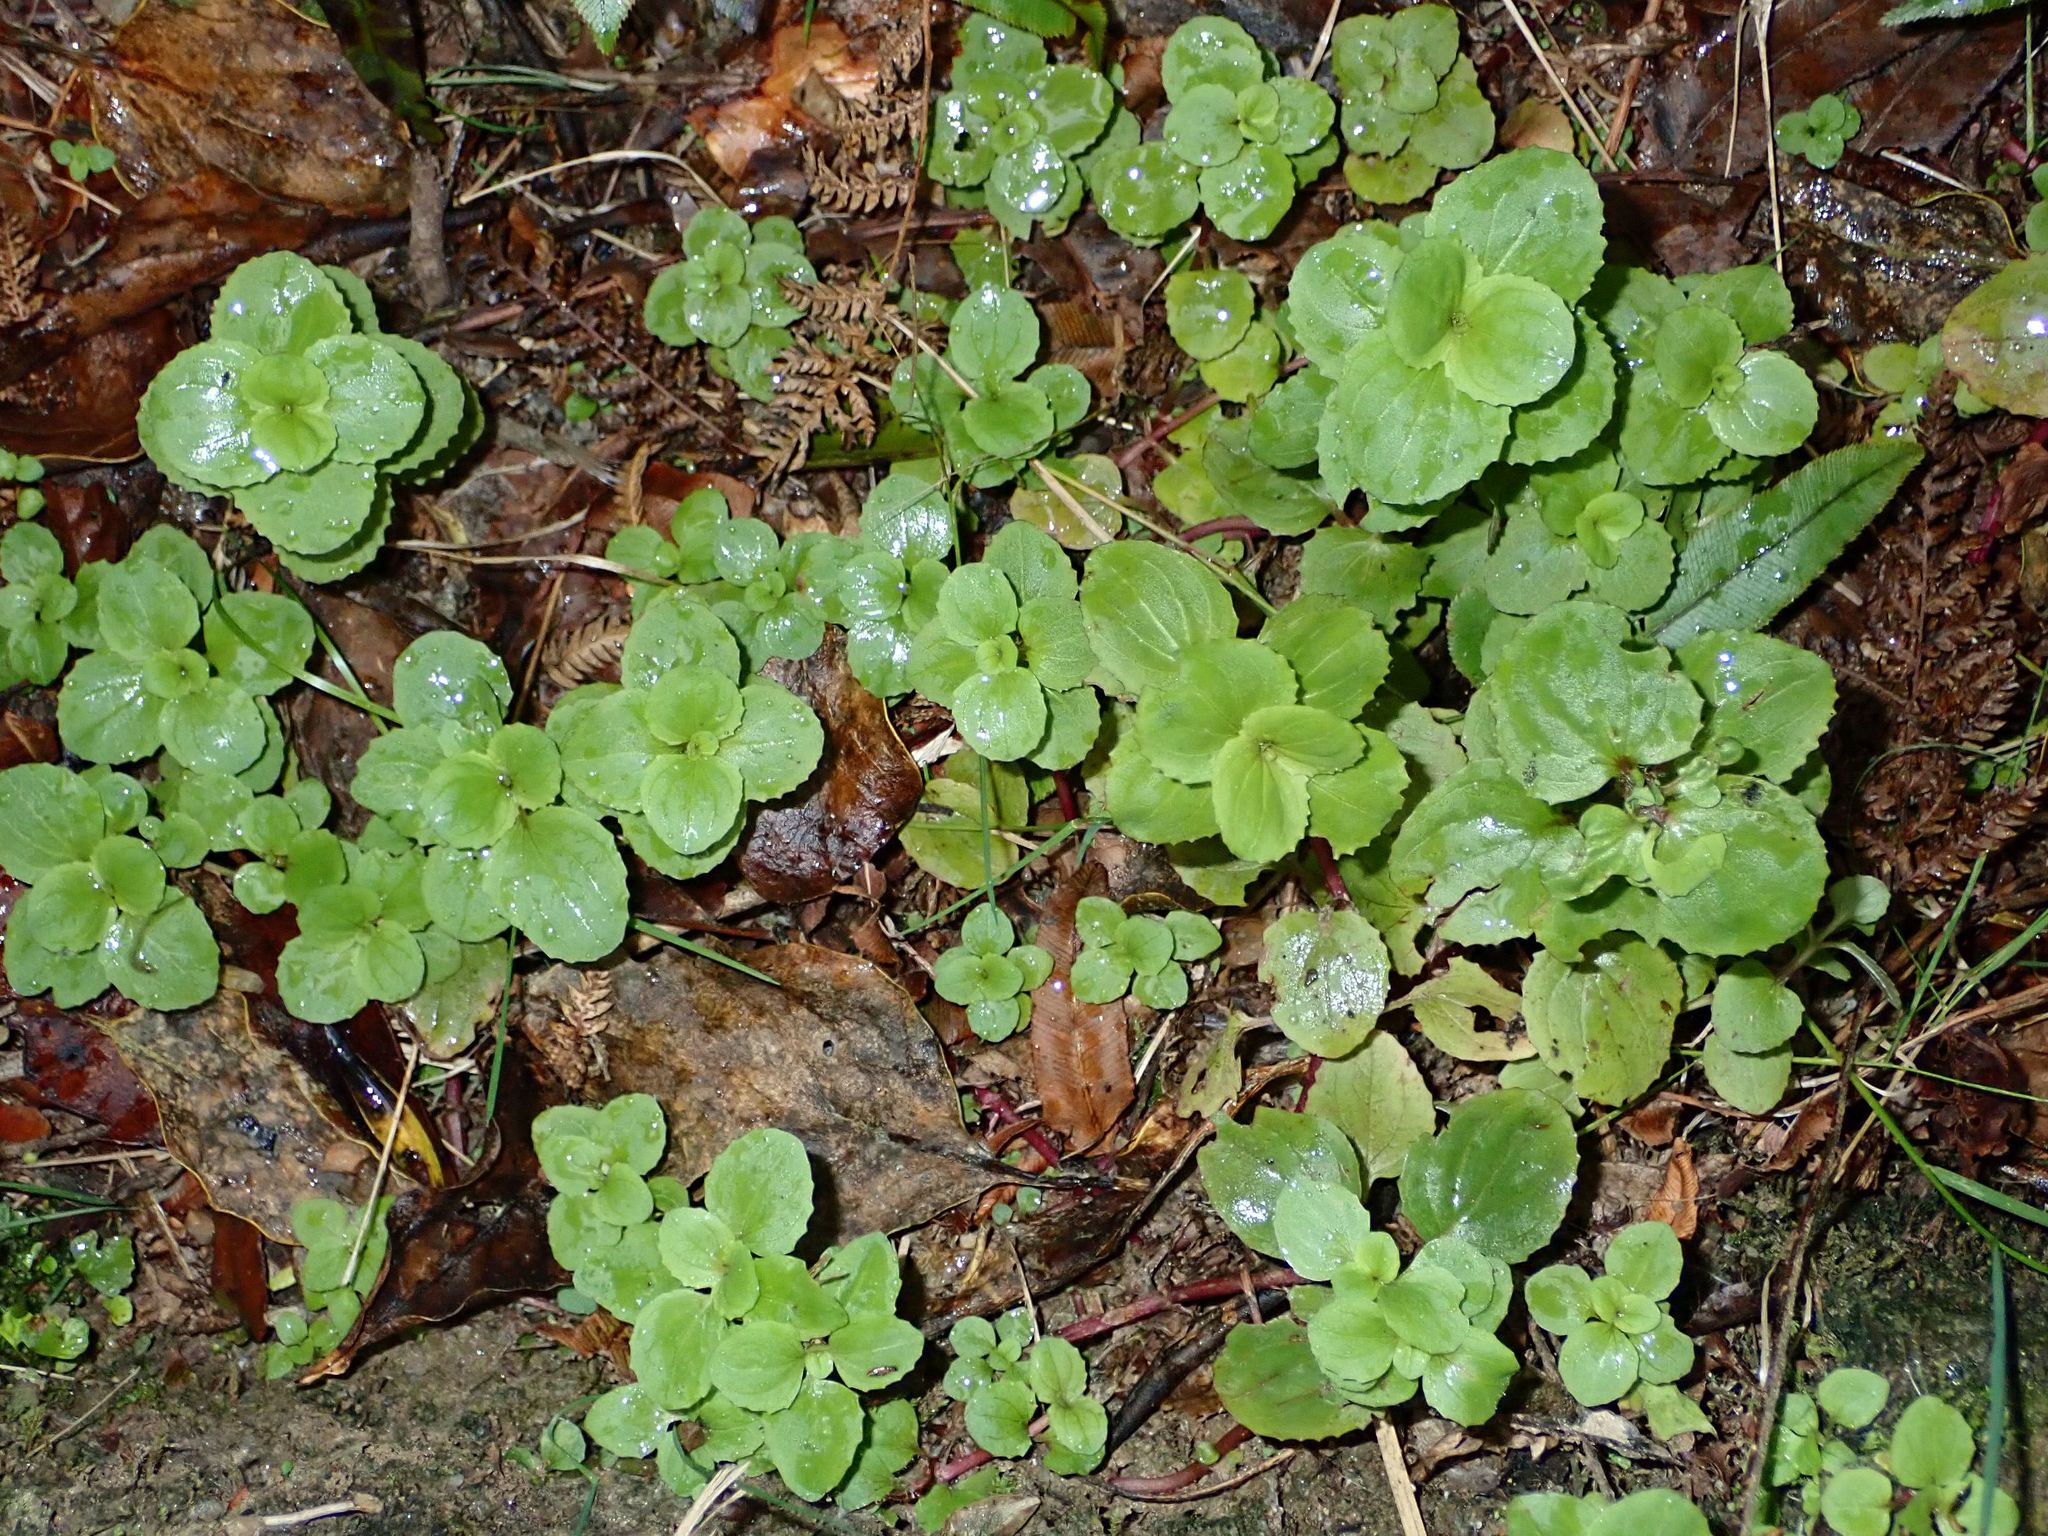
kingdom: Plantae
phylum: Tracheophyta
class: Magnoliopsida
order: Lamiales
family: Phrymaceae
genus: Erythranthe
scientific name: Erythranthe guttata
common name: Monkeyflower
